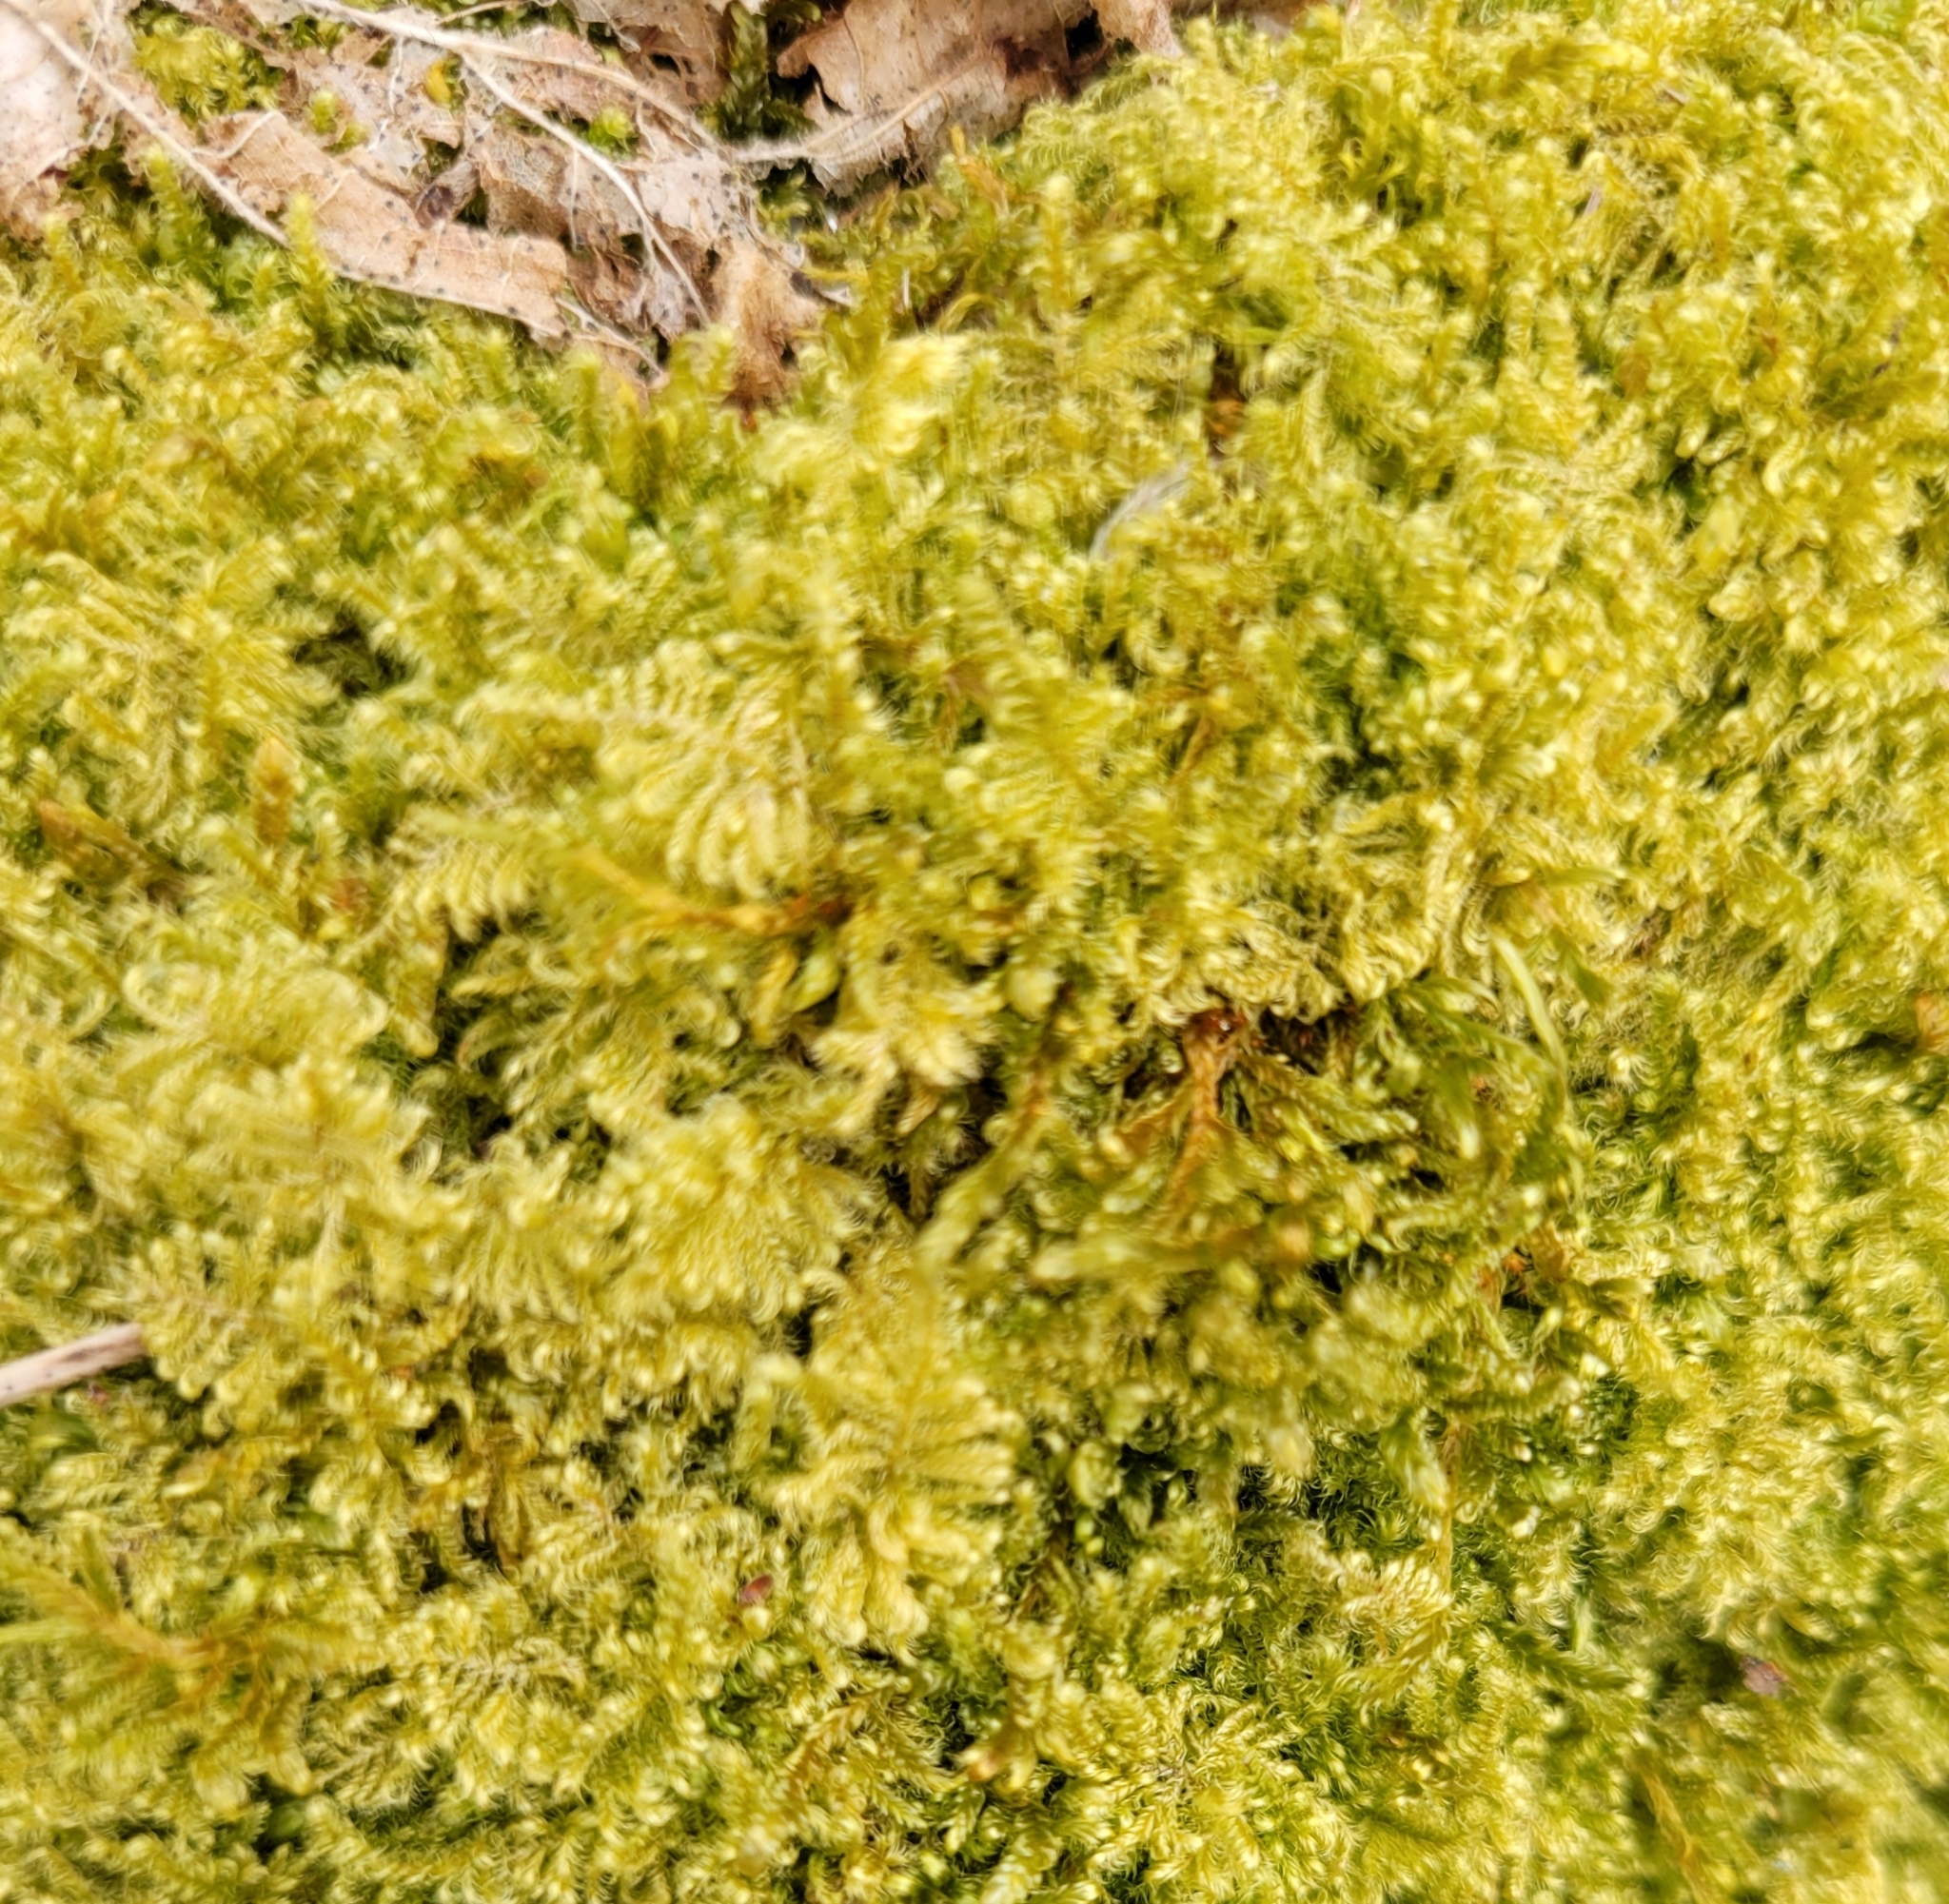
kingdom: Plantae
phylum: Bryophyta
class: Bryopsida
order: Hypnales
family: Myuriaceae
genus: Ctenidium
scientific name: Ctenidium molluscum
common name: Chalk comb-moss
